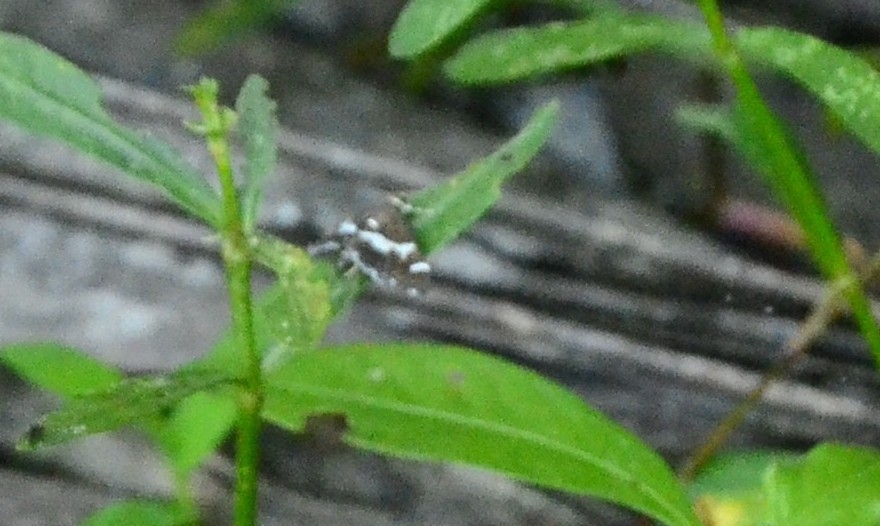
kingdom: Animalia
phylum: Arthropoda
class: Insecta
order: Lepidoptera
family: Crambidae
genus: Spoladea
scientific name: Spoladea recurvalis
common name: Beet webworm moth
